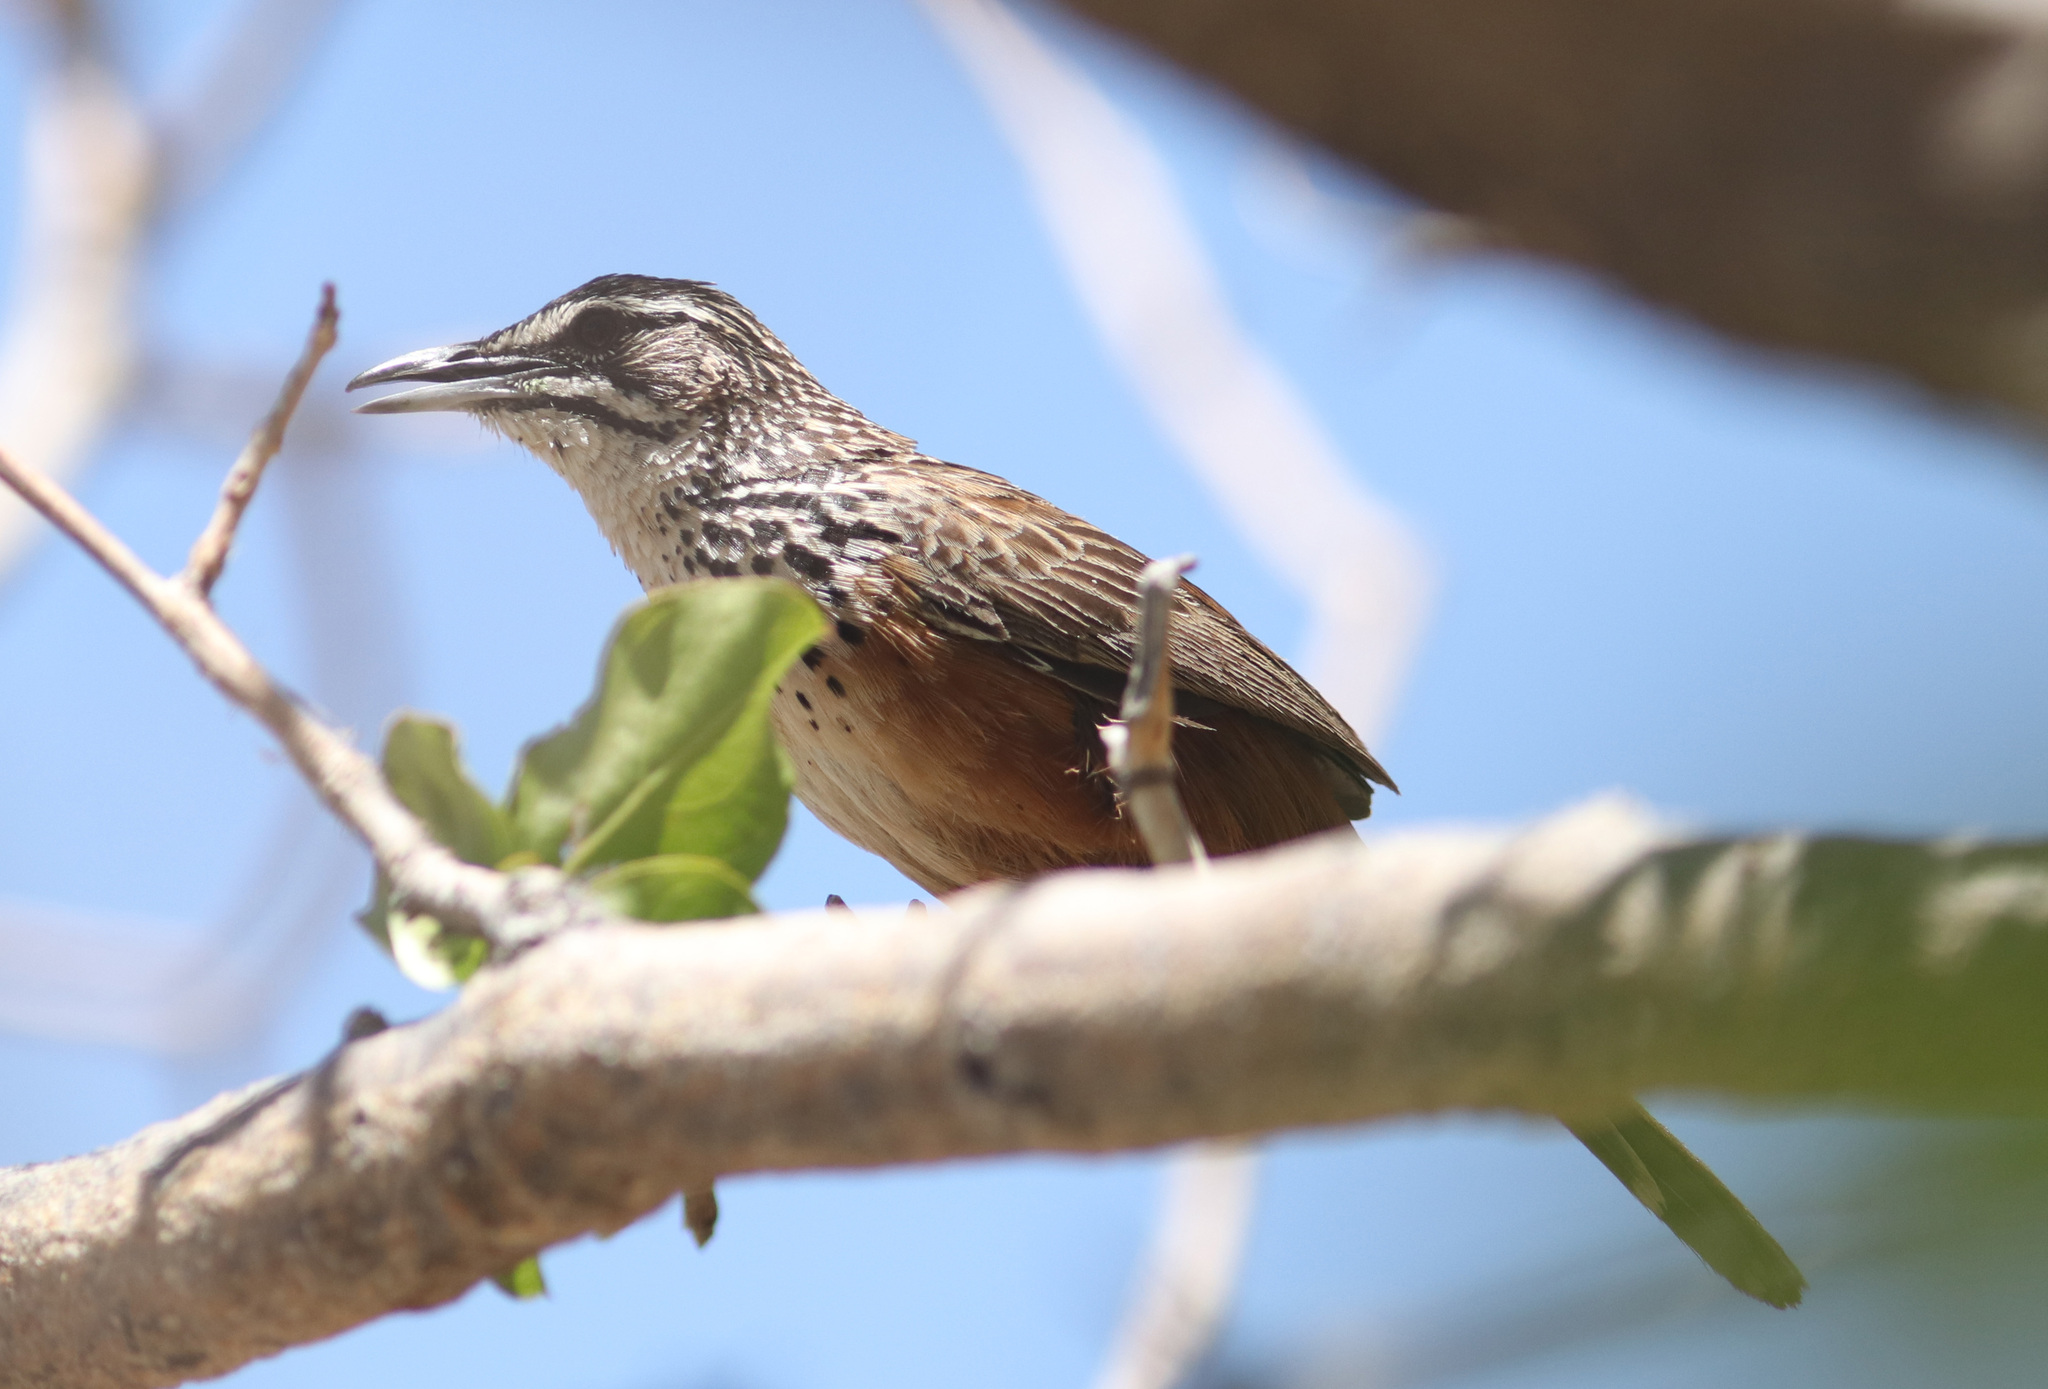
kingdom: Animalia
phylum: Chordata
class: Aves
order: Passeriformes
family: Macrosphenidae
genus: Achaetops
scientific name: Achaetops pycnopygius
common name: Rockrunner
